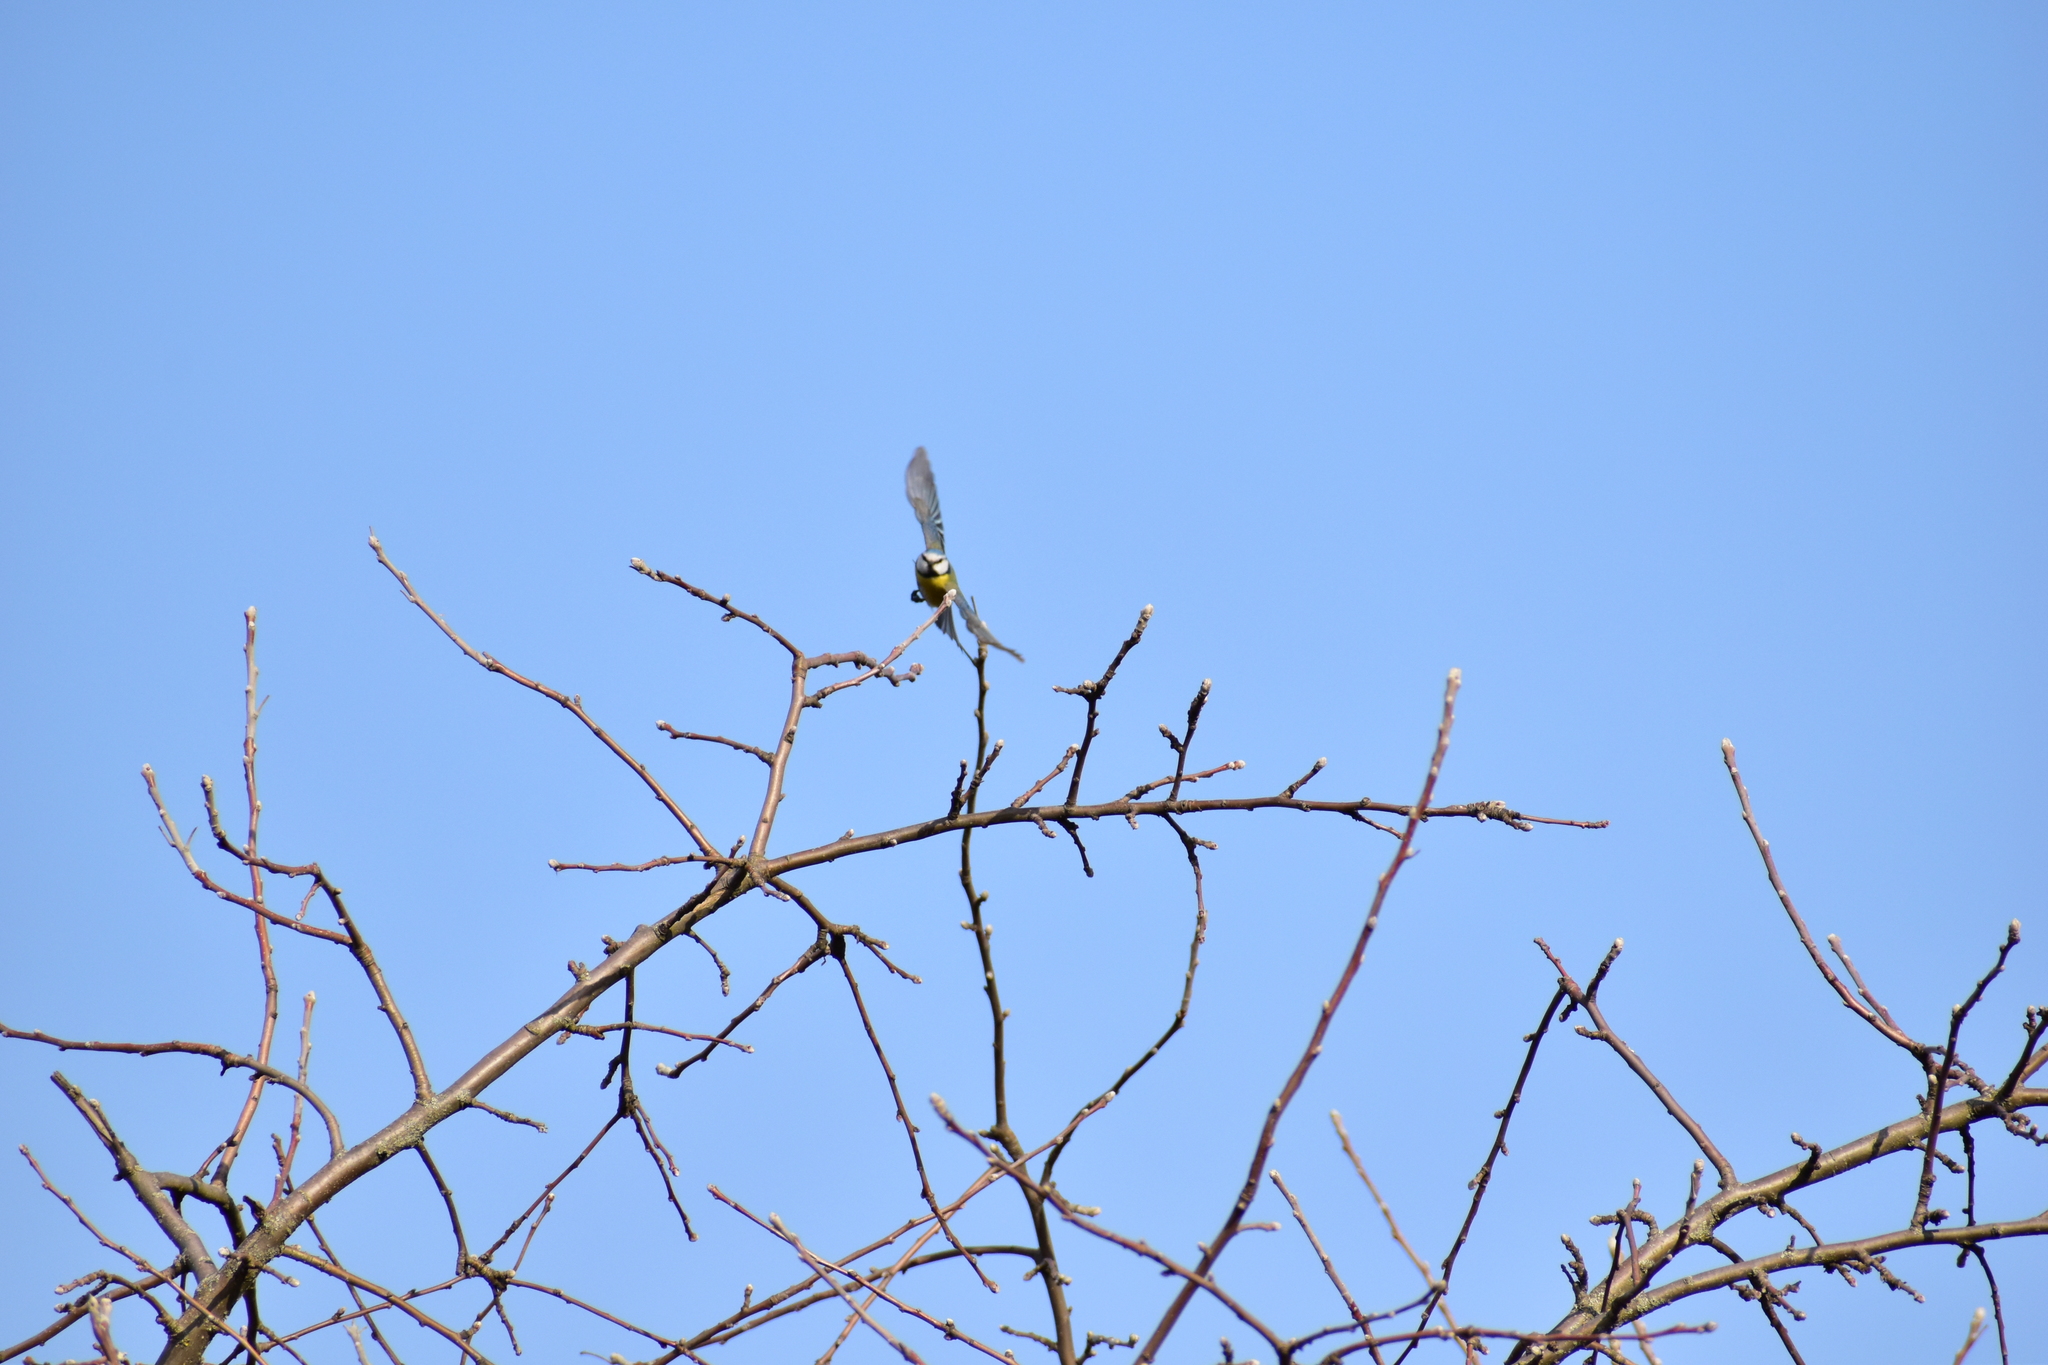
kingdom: Animalia
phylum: Chordata
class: Aves
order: Passeriformes
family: Paridae
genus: Cyanistes
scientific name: Cyanistes caeruleus
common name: Eurasian blue tit
